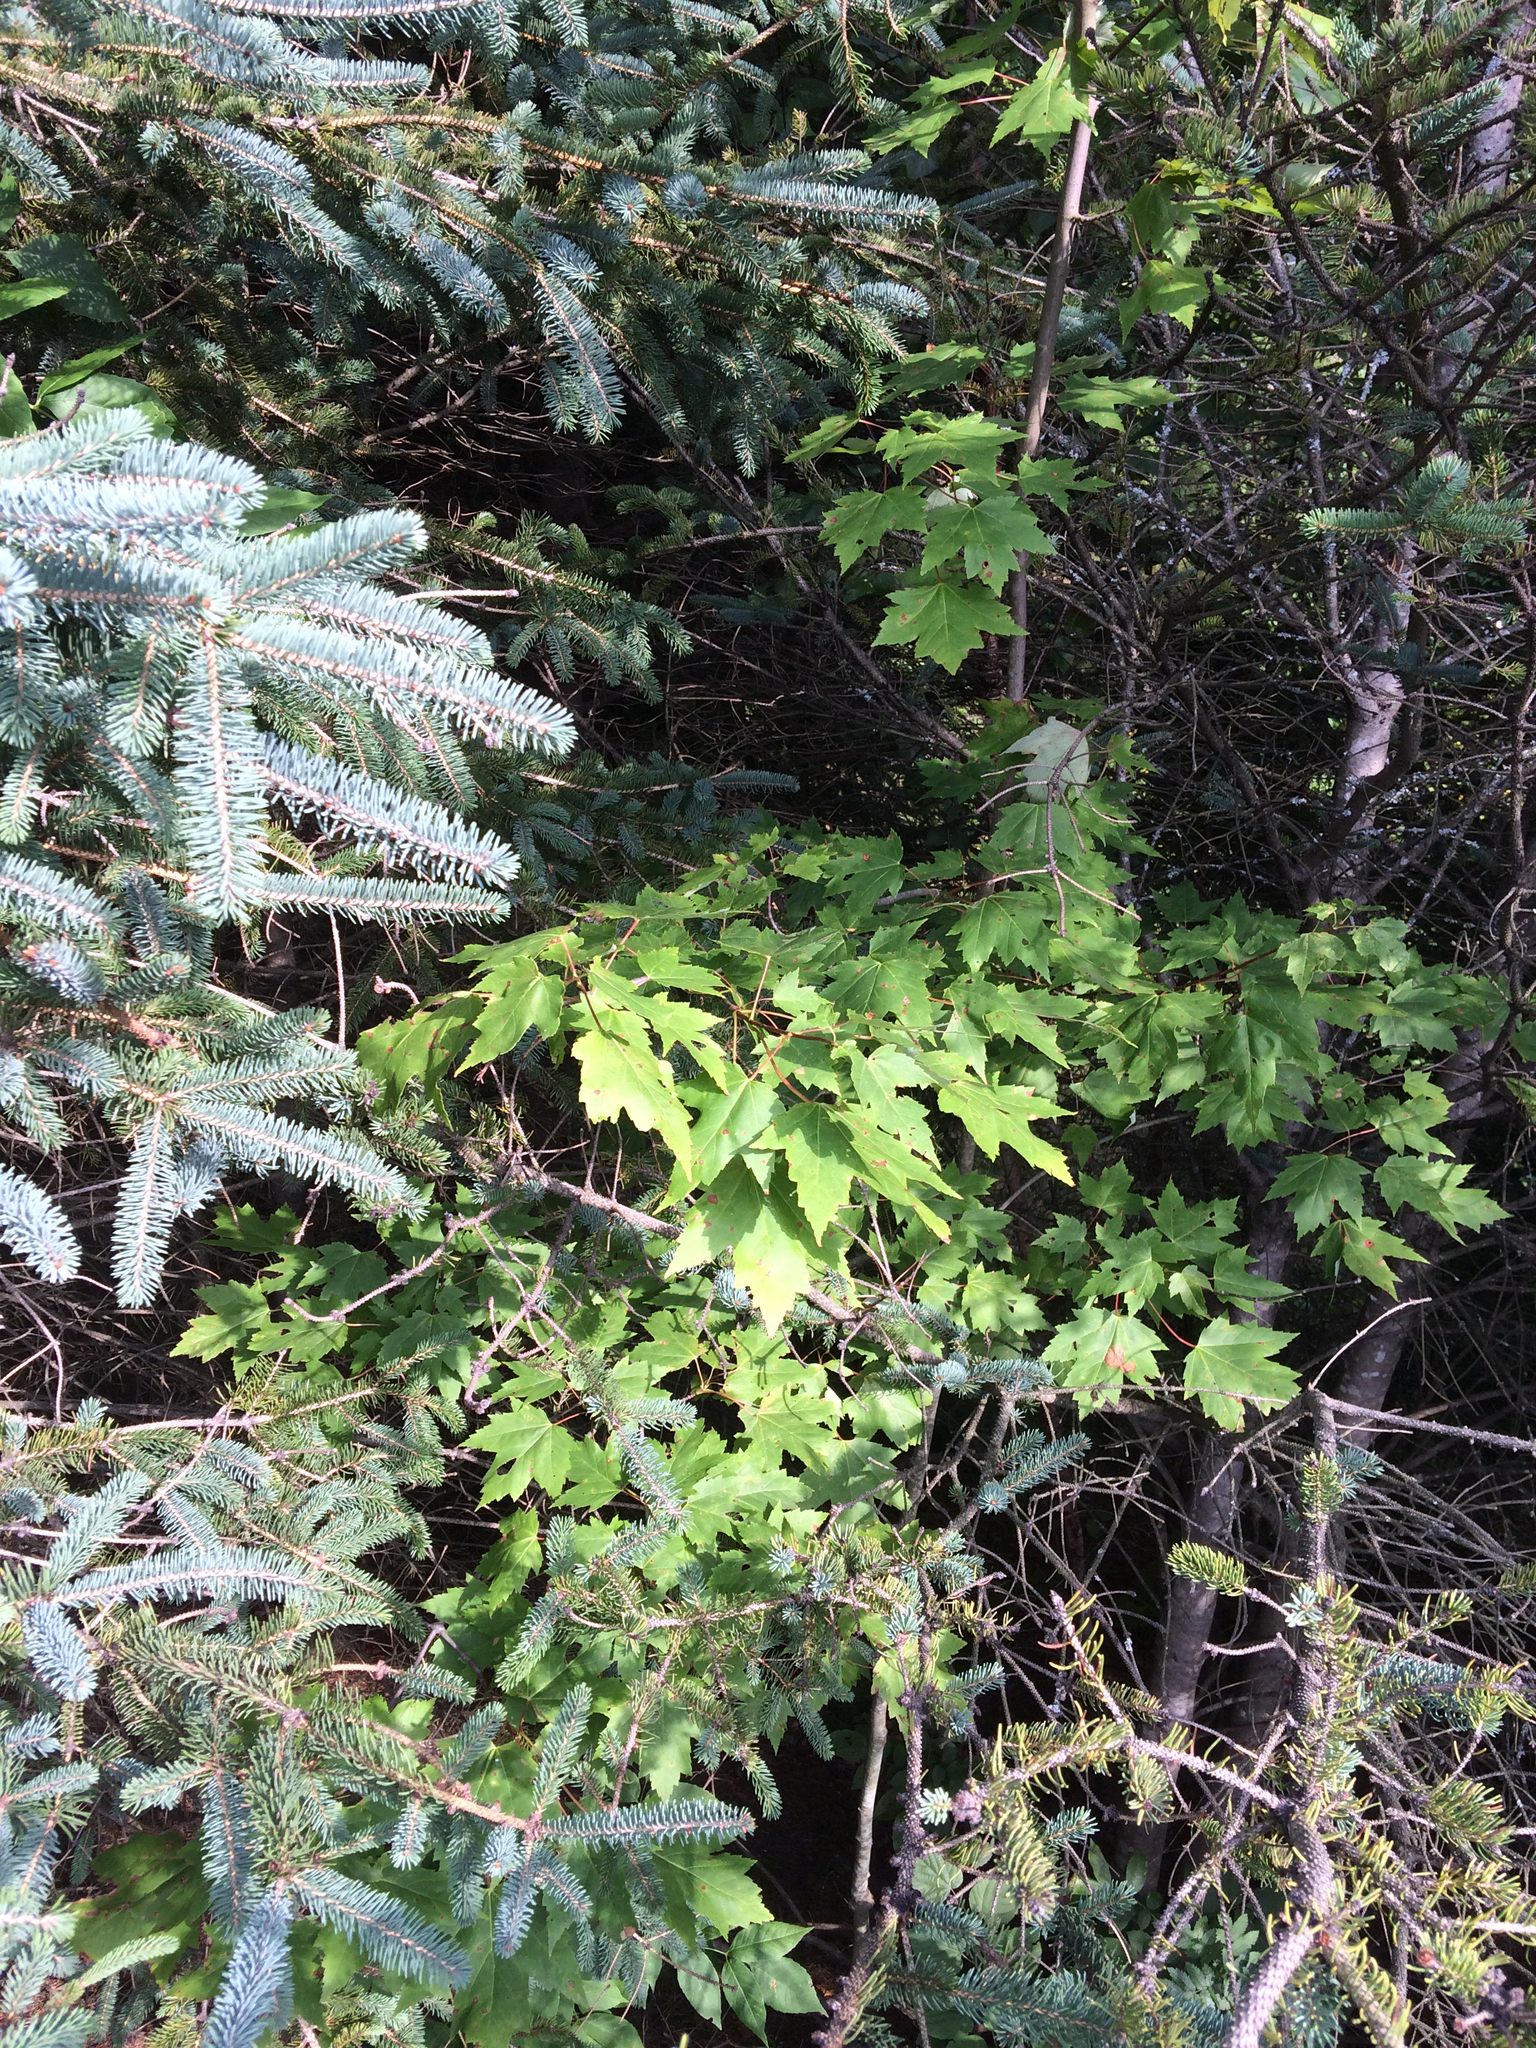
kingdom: Plantae
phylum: Tracheophyta
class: Magnoliopsida
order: Sapindales
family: Sapindaceae
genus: Acer
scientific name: Acer rubrum
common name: Red maple
